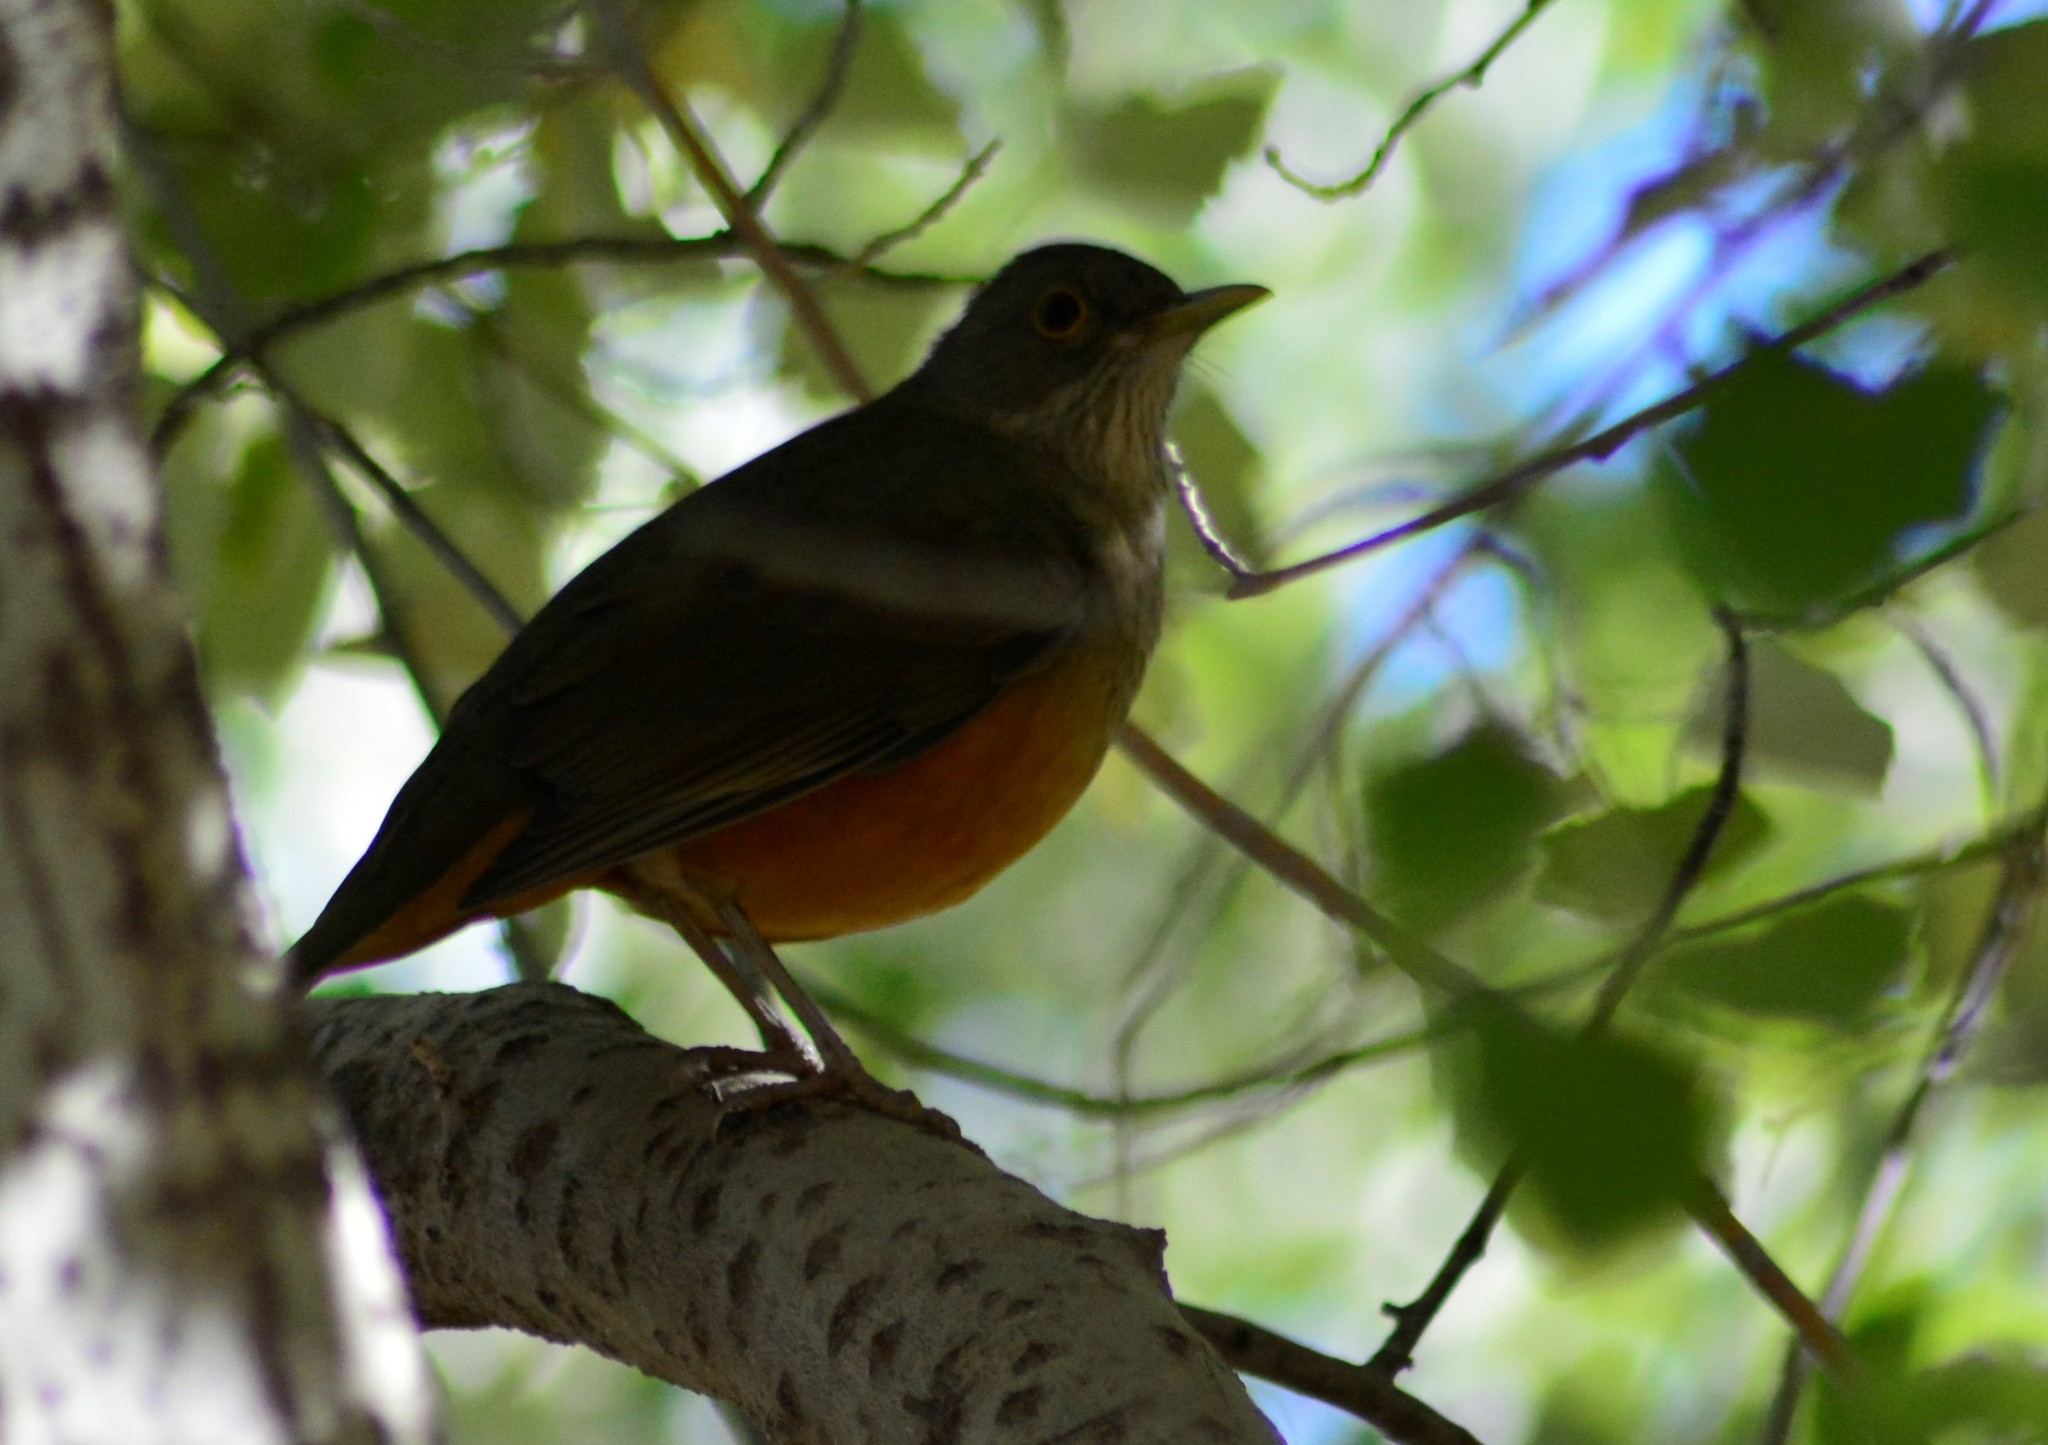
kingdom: Animalia
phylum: Chordata
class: Aves
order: Passeriformes
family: Turdidae
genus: Turdus
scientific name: Turdus rufiventris
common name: Rufous-bellied thrush
